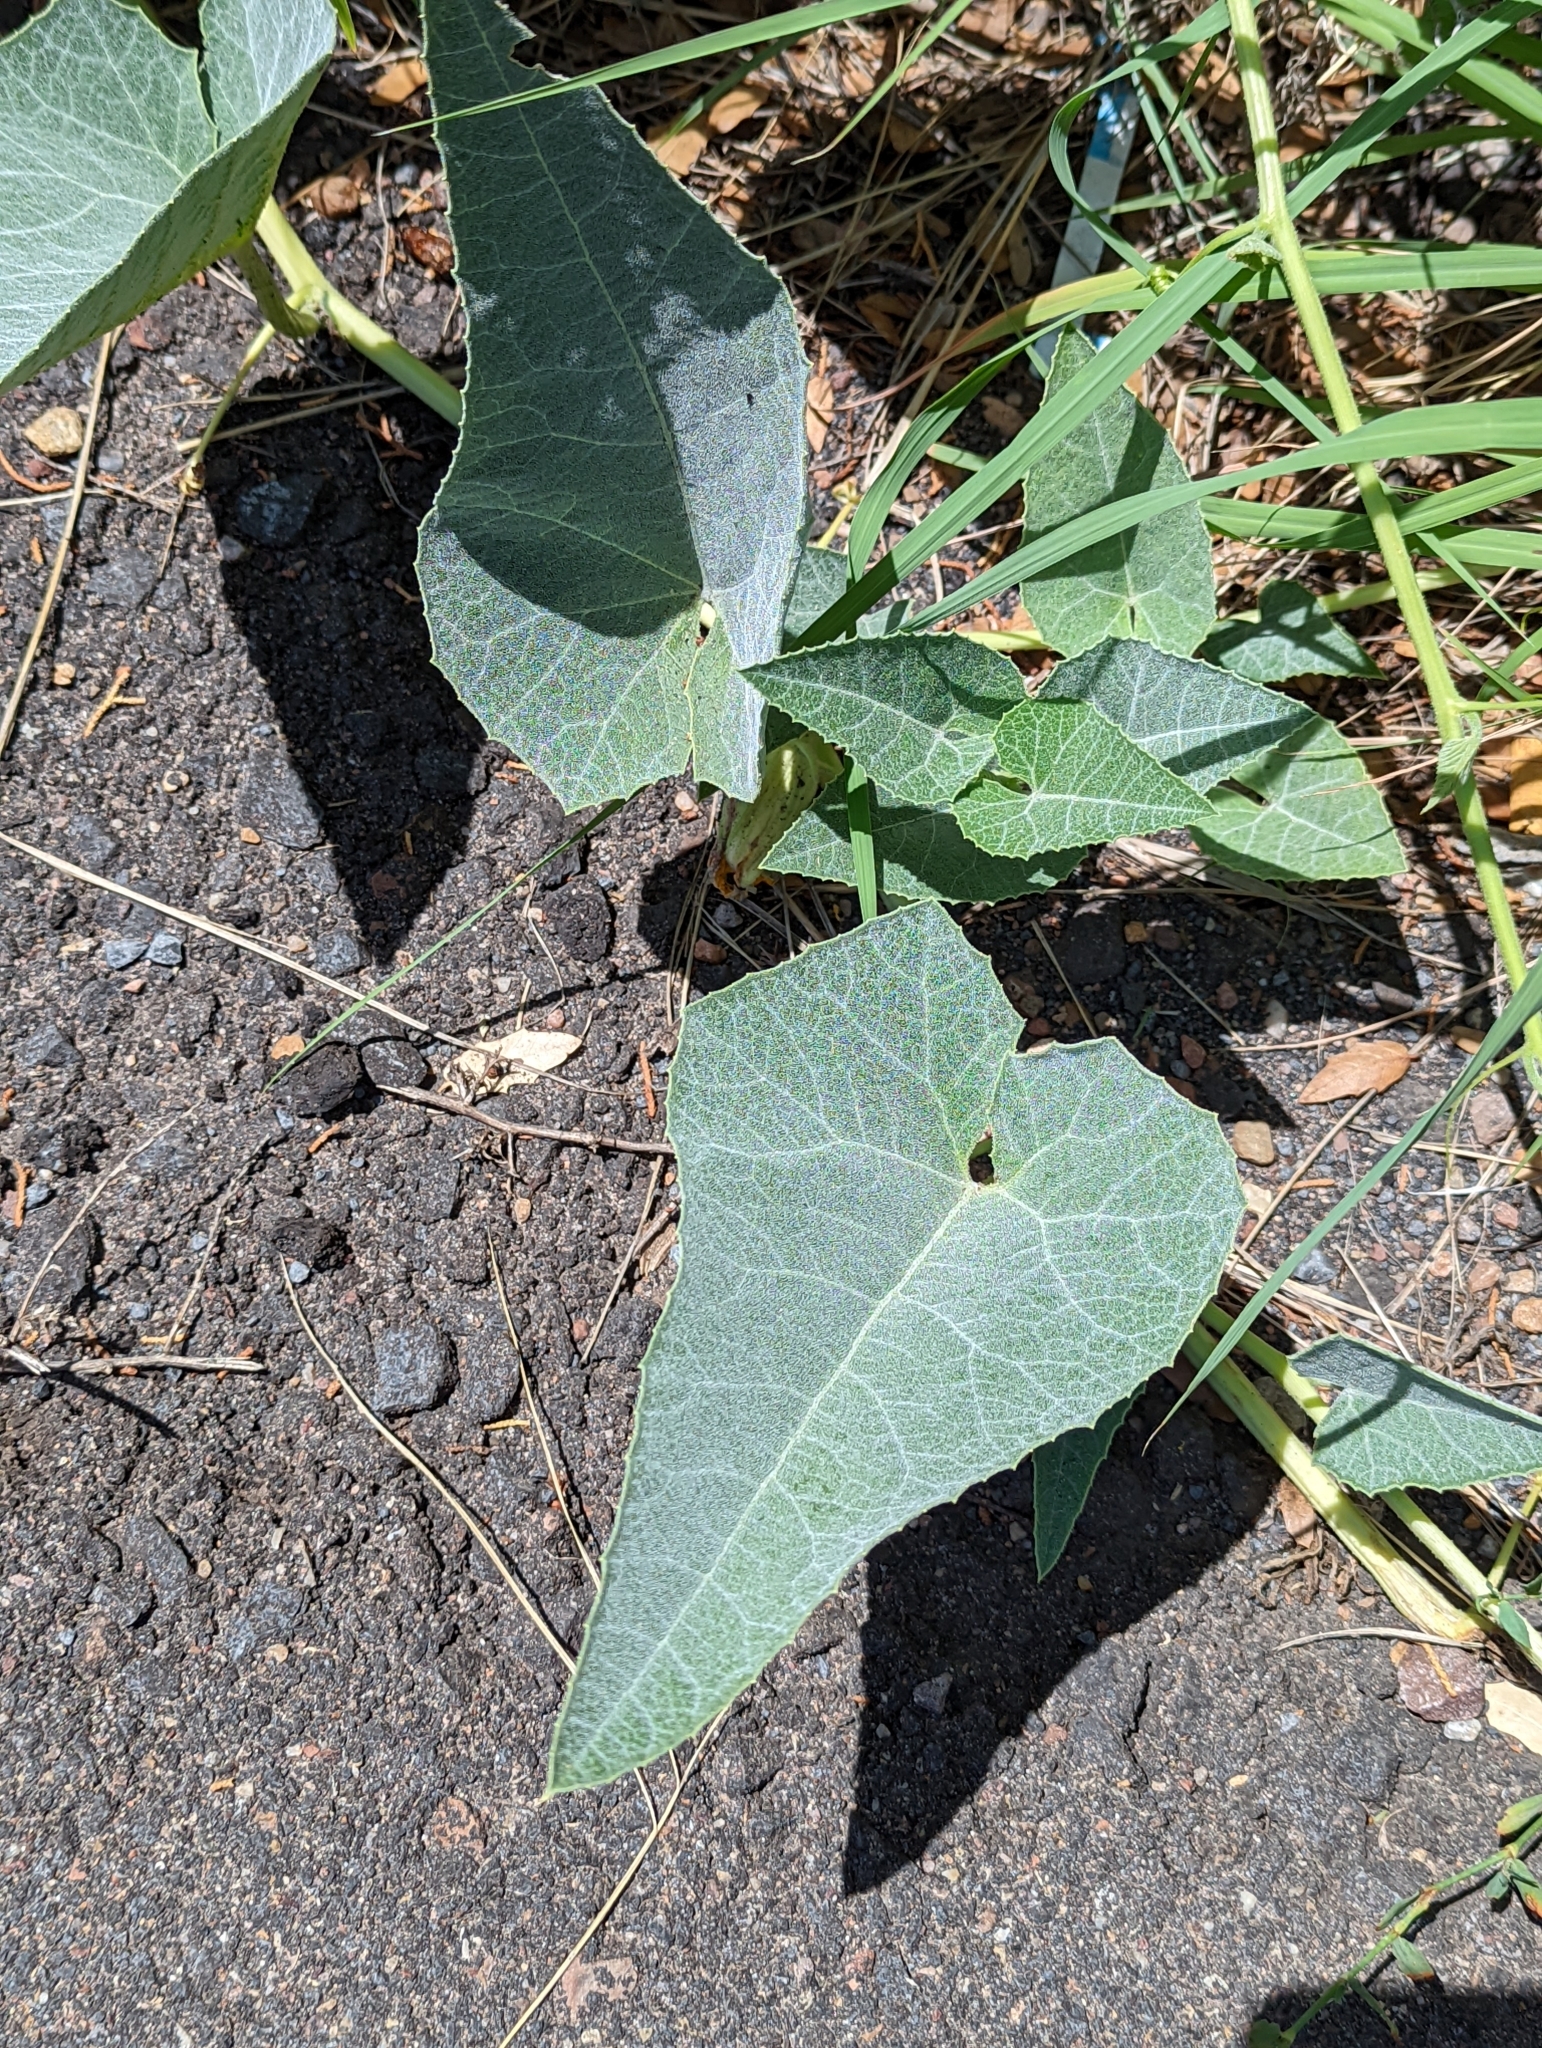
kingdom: Plantae
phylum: Tracheophyta
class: Magnoliopsida
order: Cucurbitales
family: Cucurbitaceae
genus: Cucurbita
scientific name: Cucurbita foetidissima
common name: Buffalo gourd
